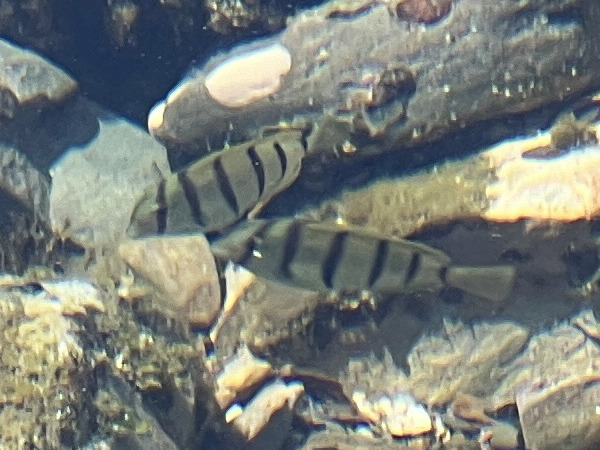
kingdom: Animalia
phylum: Chordata
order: Perciformes
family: Acanthuridae
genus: Acanthurus
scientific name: Acanthurus triostegus
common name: Convict surgeonfish
